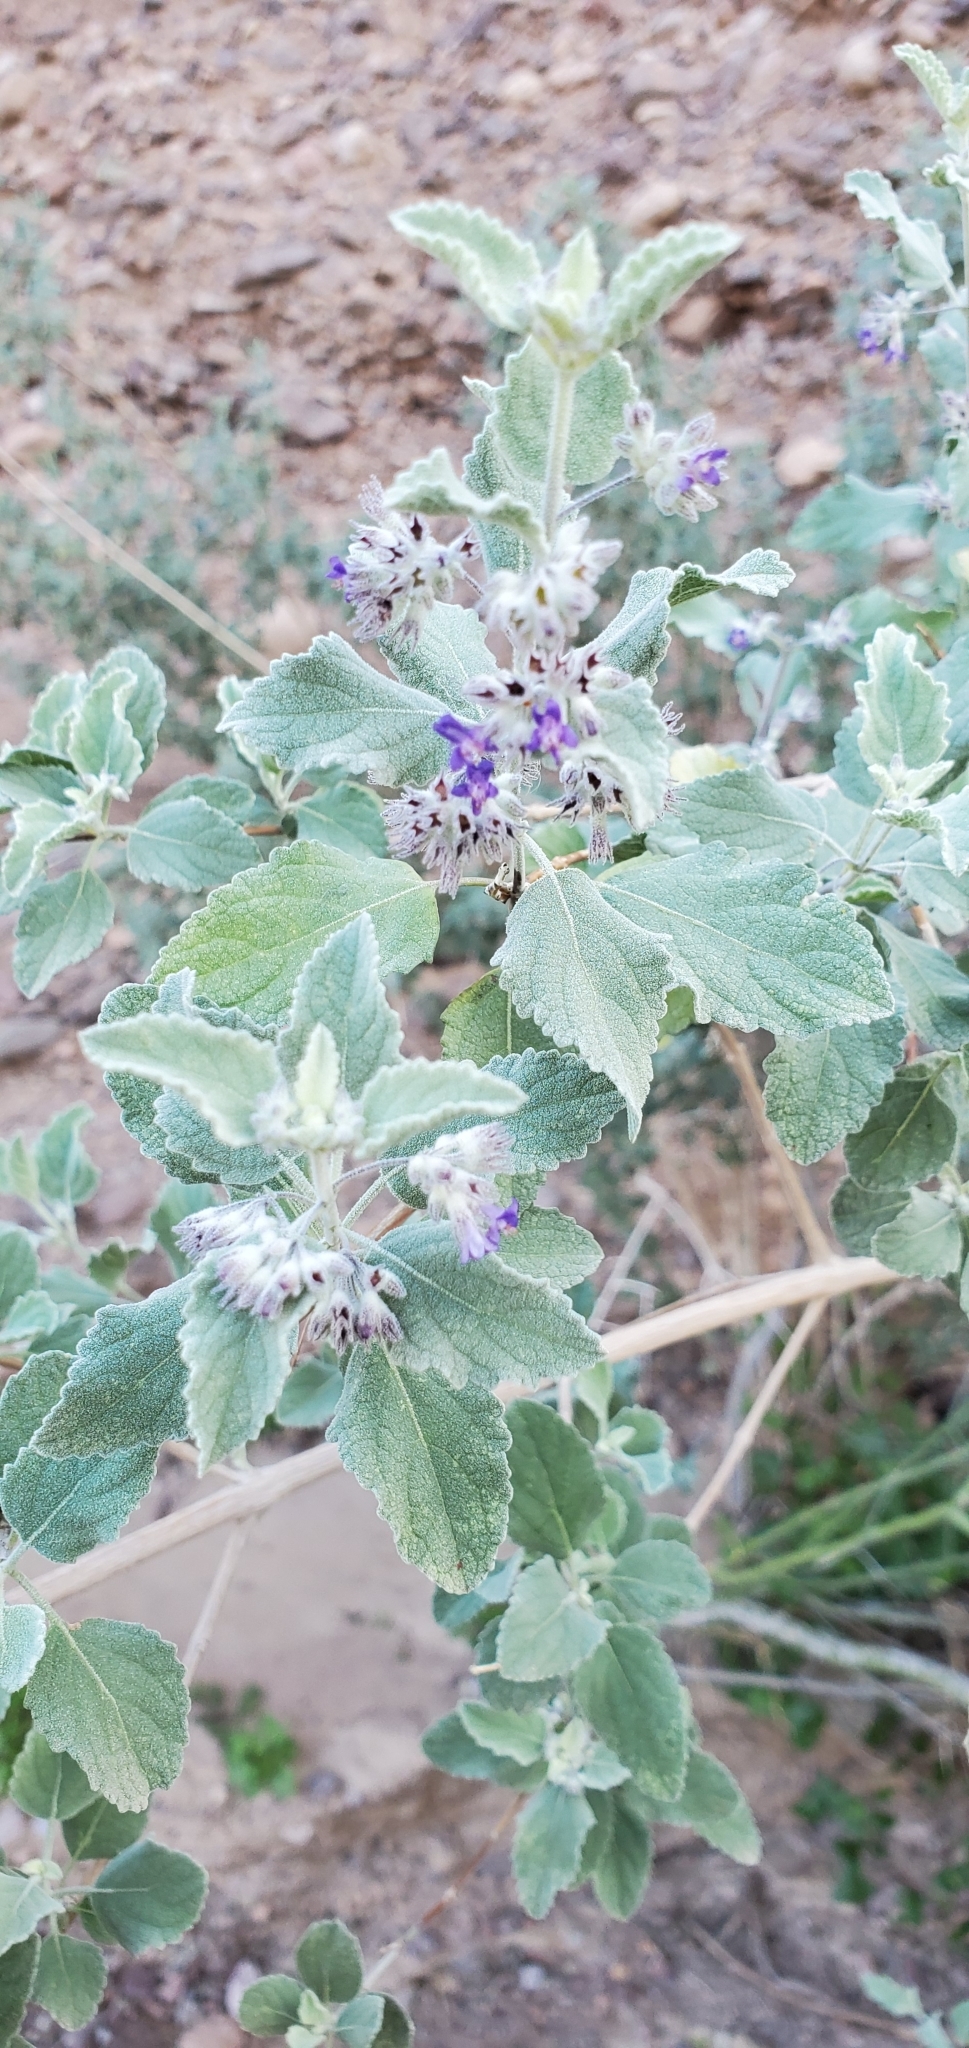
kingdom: Plantae
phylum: Tracheophyta
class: Magnoliopsida
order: Lamiales
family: Lamiaceae
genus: Condea
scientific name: Condea emoryi
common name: Chia
